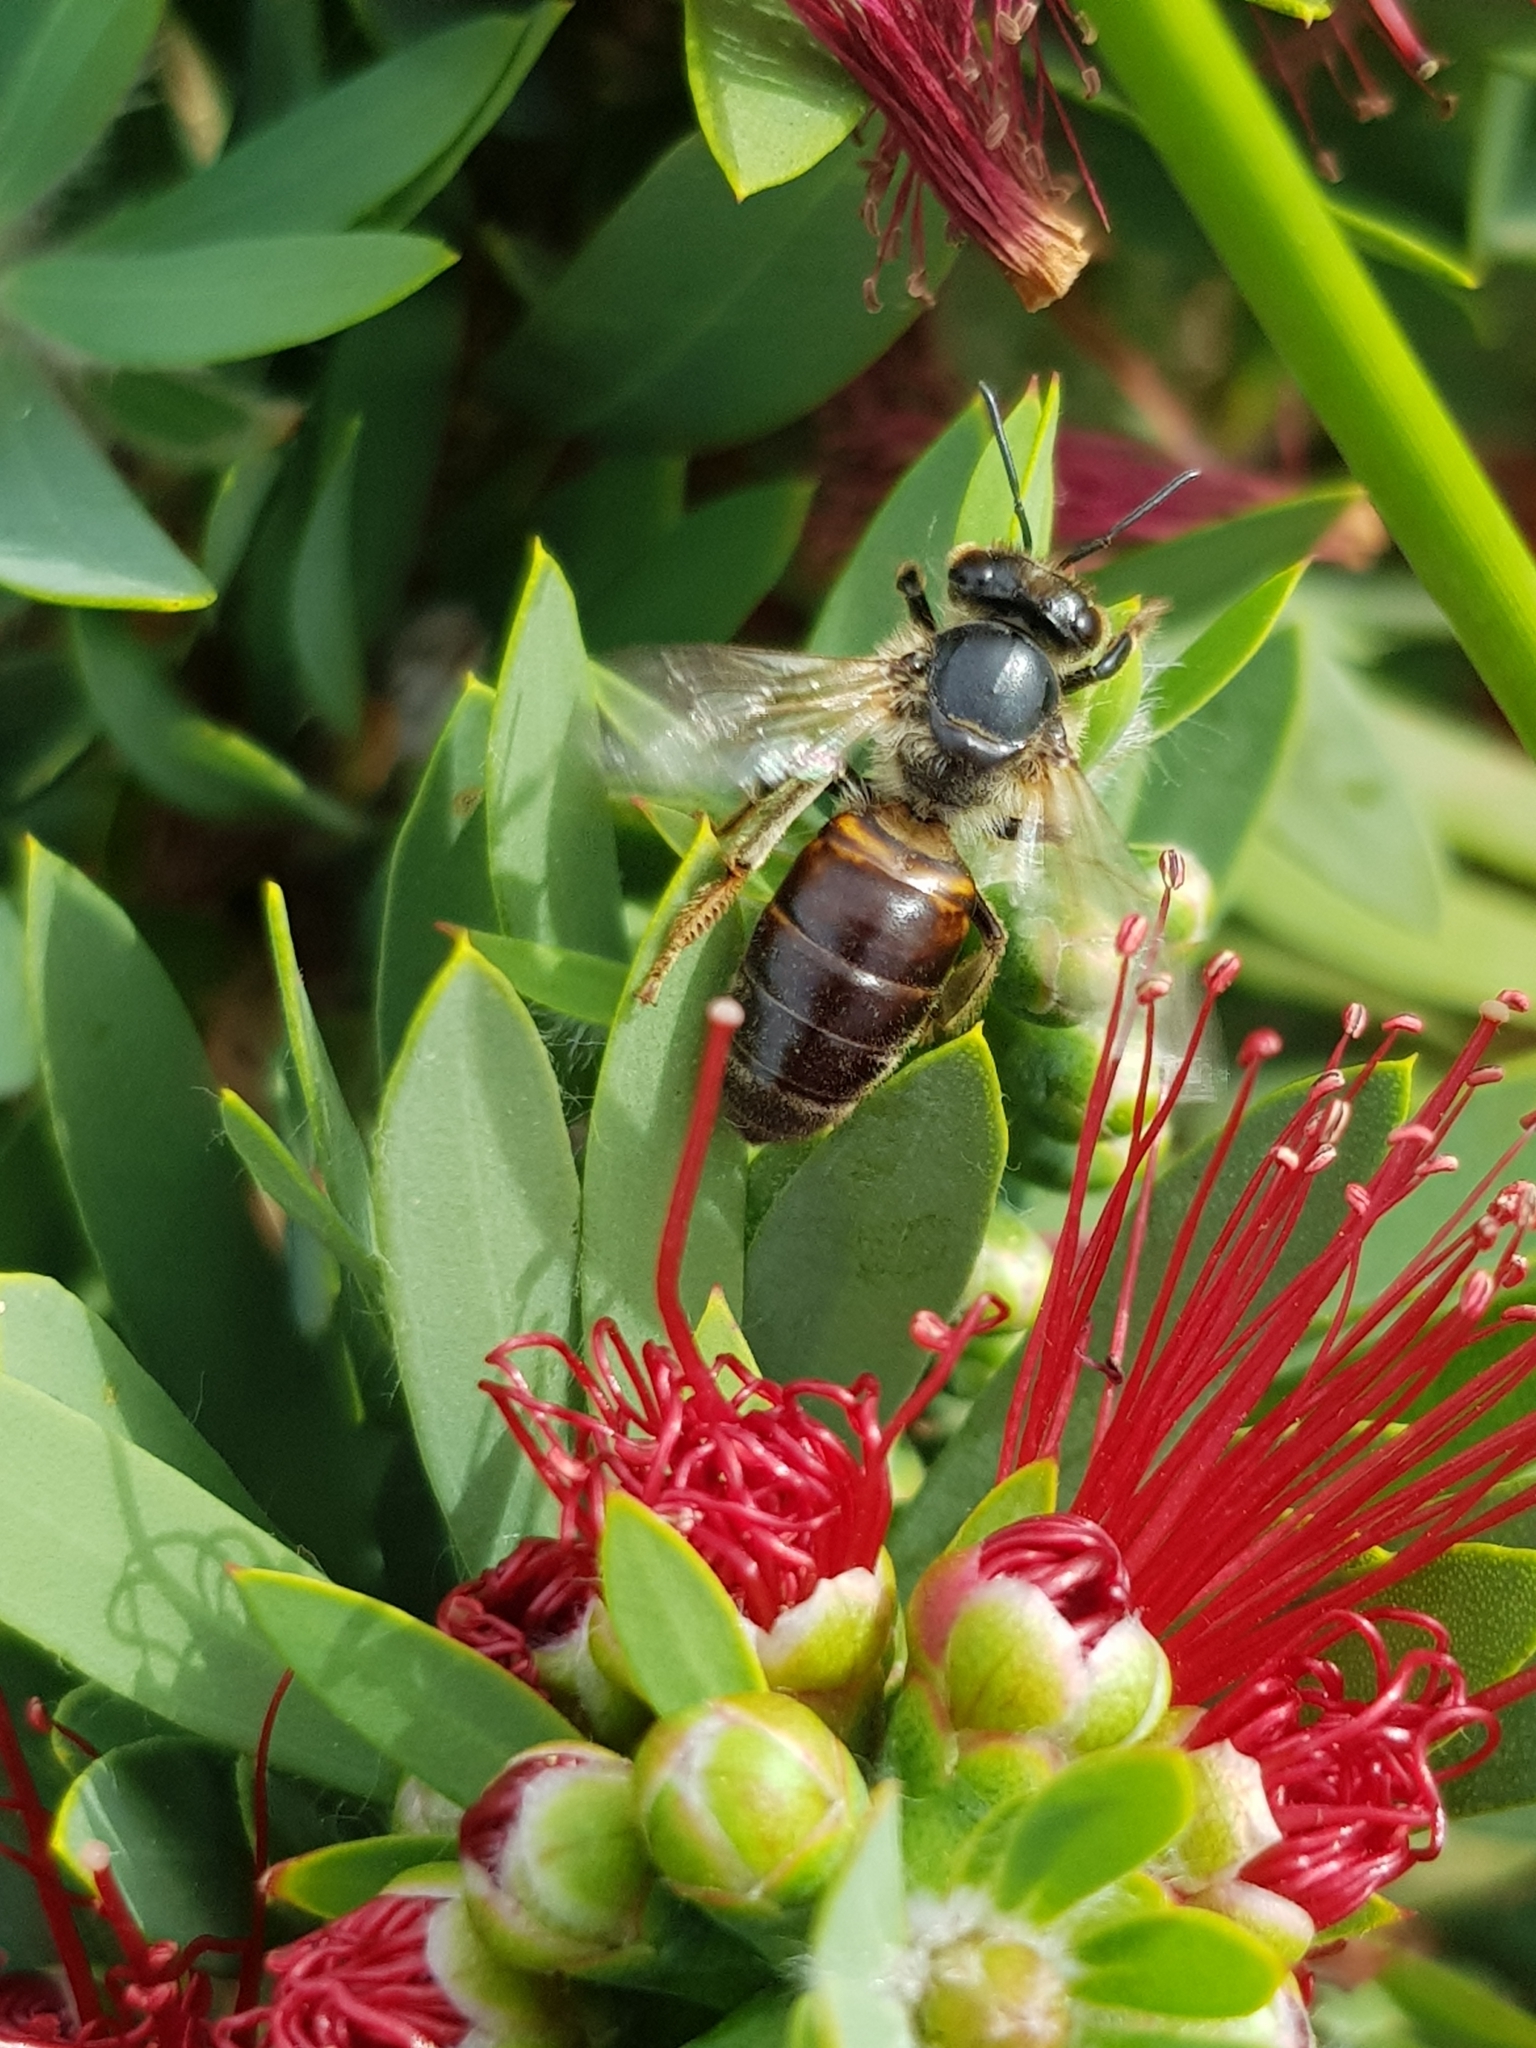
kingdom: Animalia
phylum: Arthropoda
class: Insecta
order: Hymenoptera
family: Apidae
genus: Apis
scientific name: Apis mellifera
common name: Honey bee
